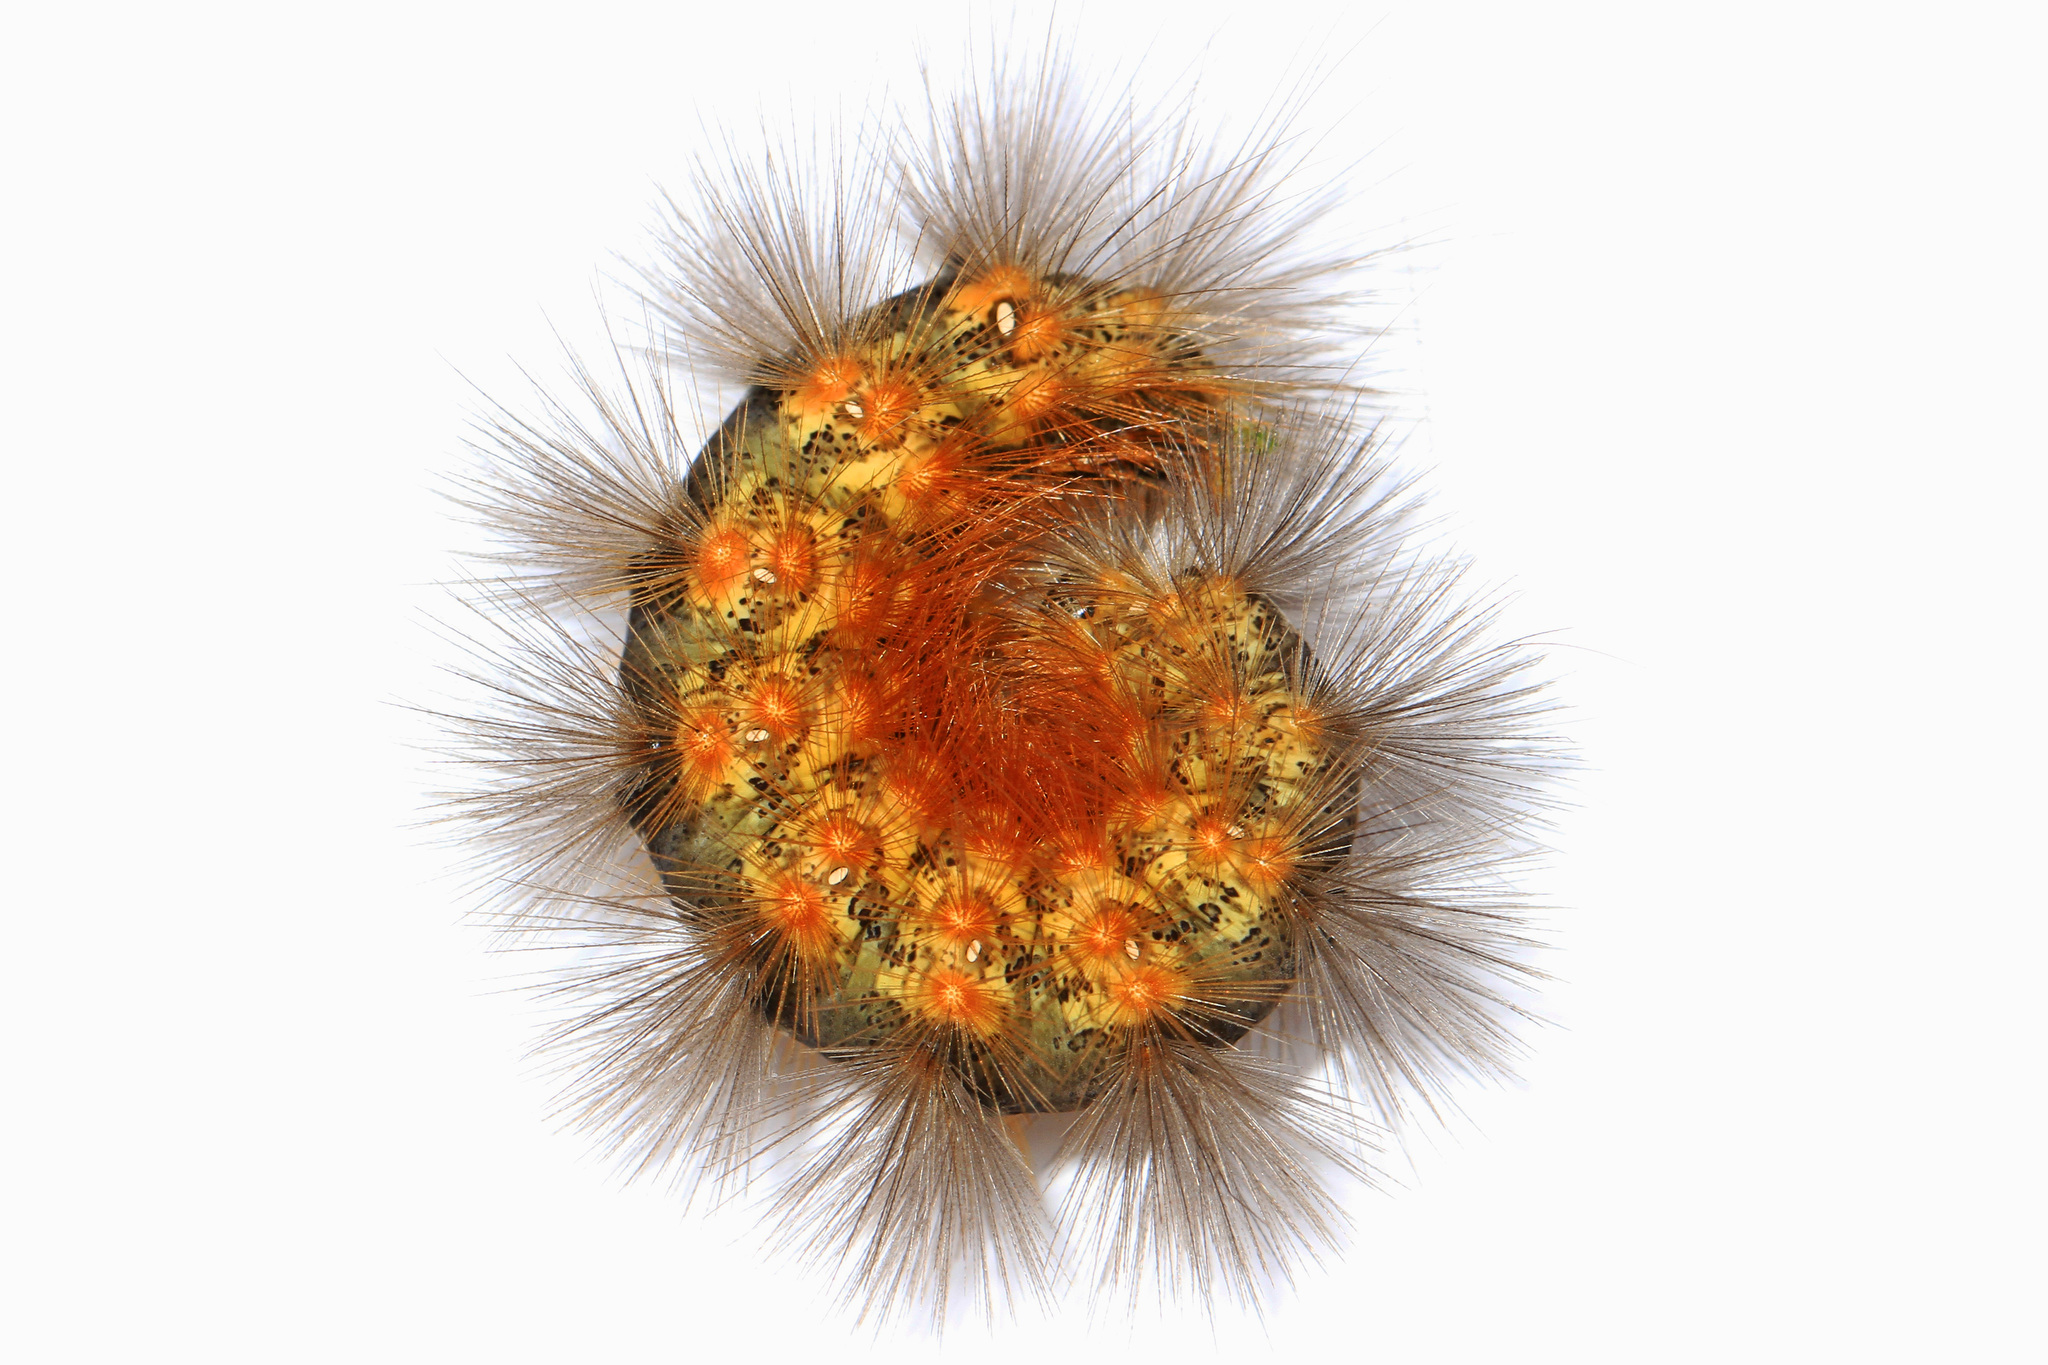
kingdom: Animalia
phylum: Arthropoda
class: Insecta
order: Lepidoptera
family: Erebidae
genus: Estigmene
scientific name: Estigmene acrea
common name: Salt marsh moth
